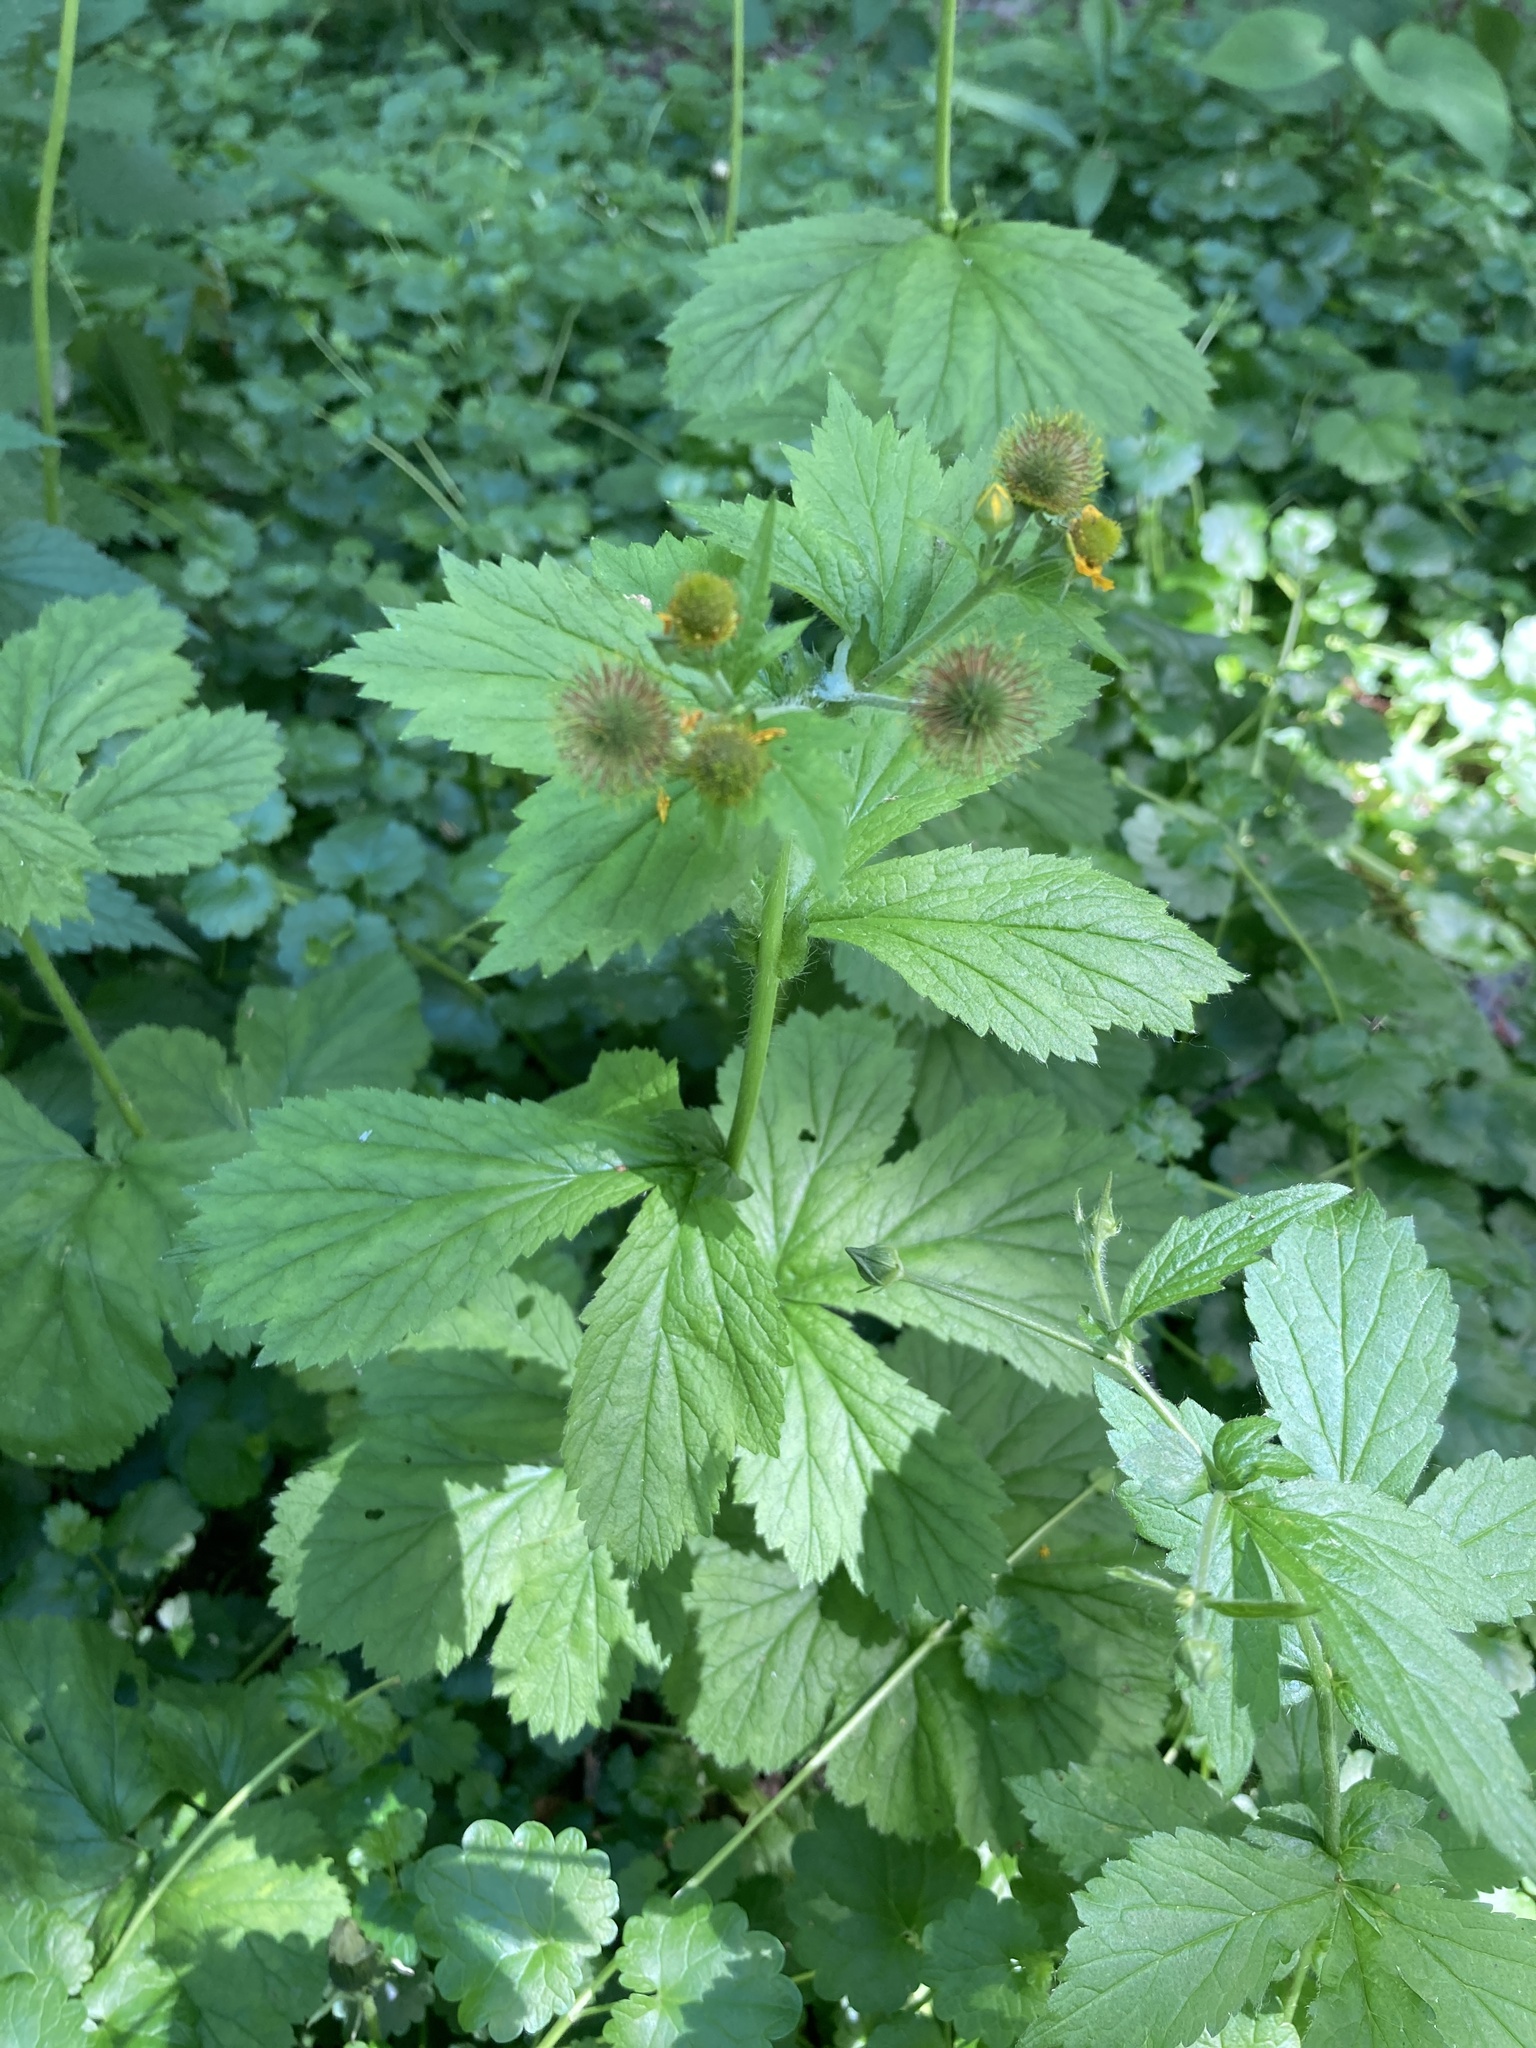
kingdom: Plantae
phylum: Tracheophyta
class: Magnoliopsida
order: Rosales
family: Rosaceae
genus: Geum
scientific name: Geum macrophyllum
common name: Large-leaved avens
